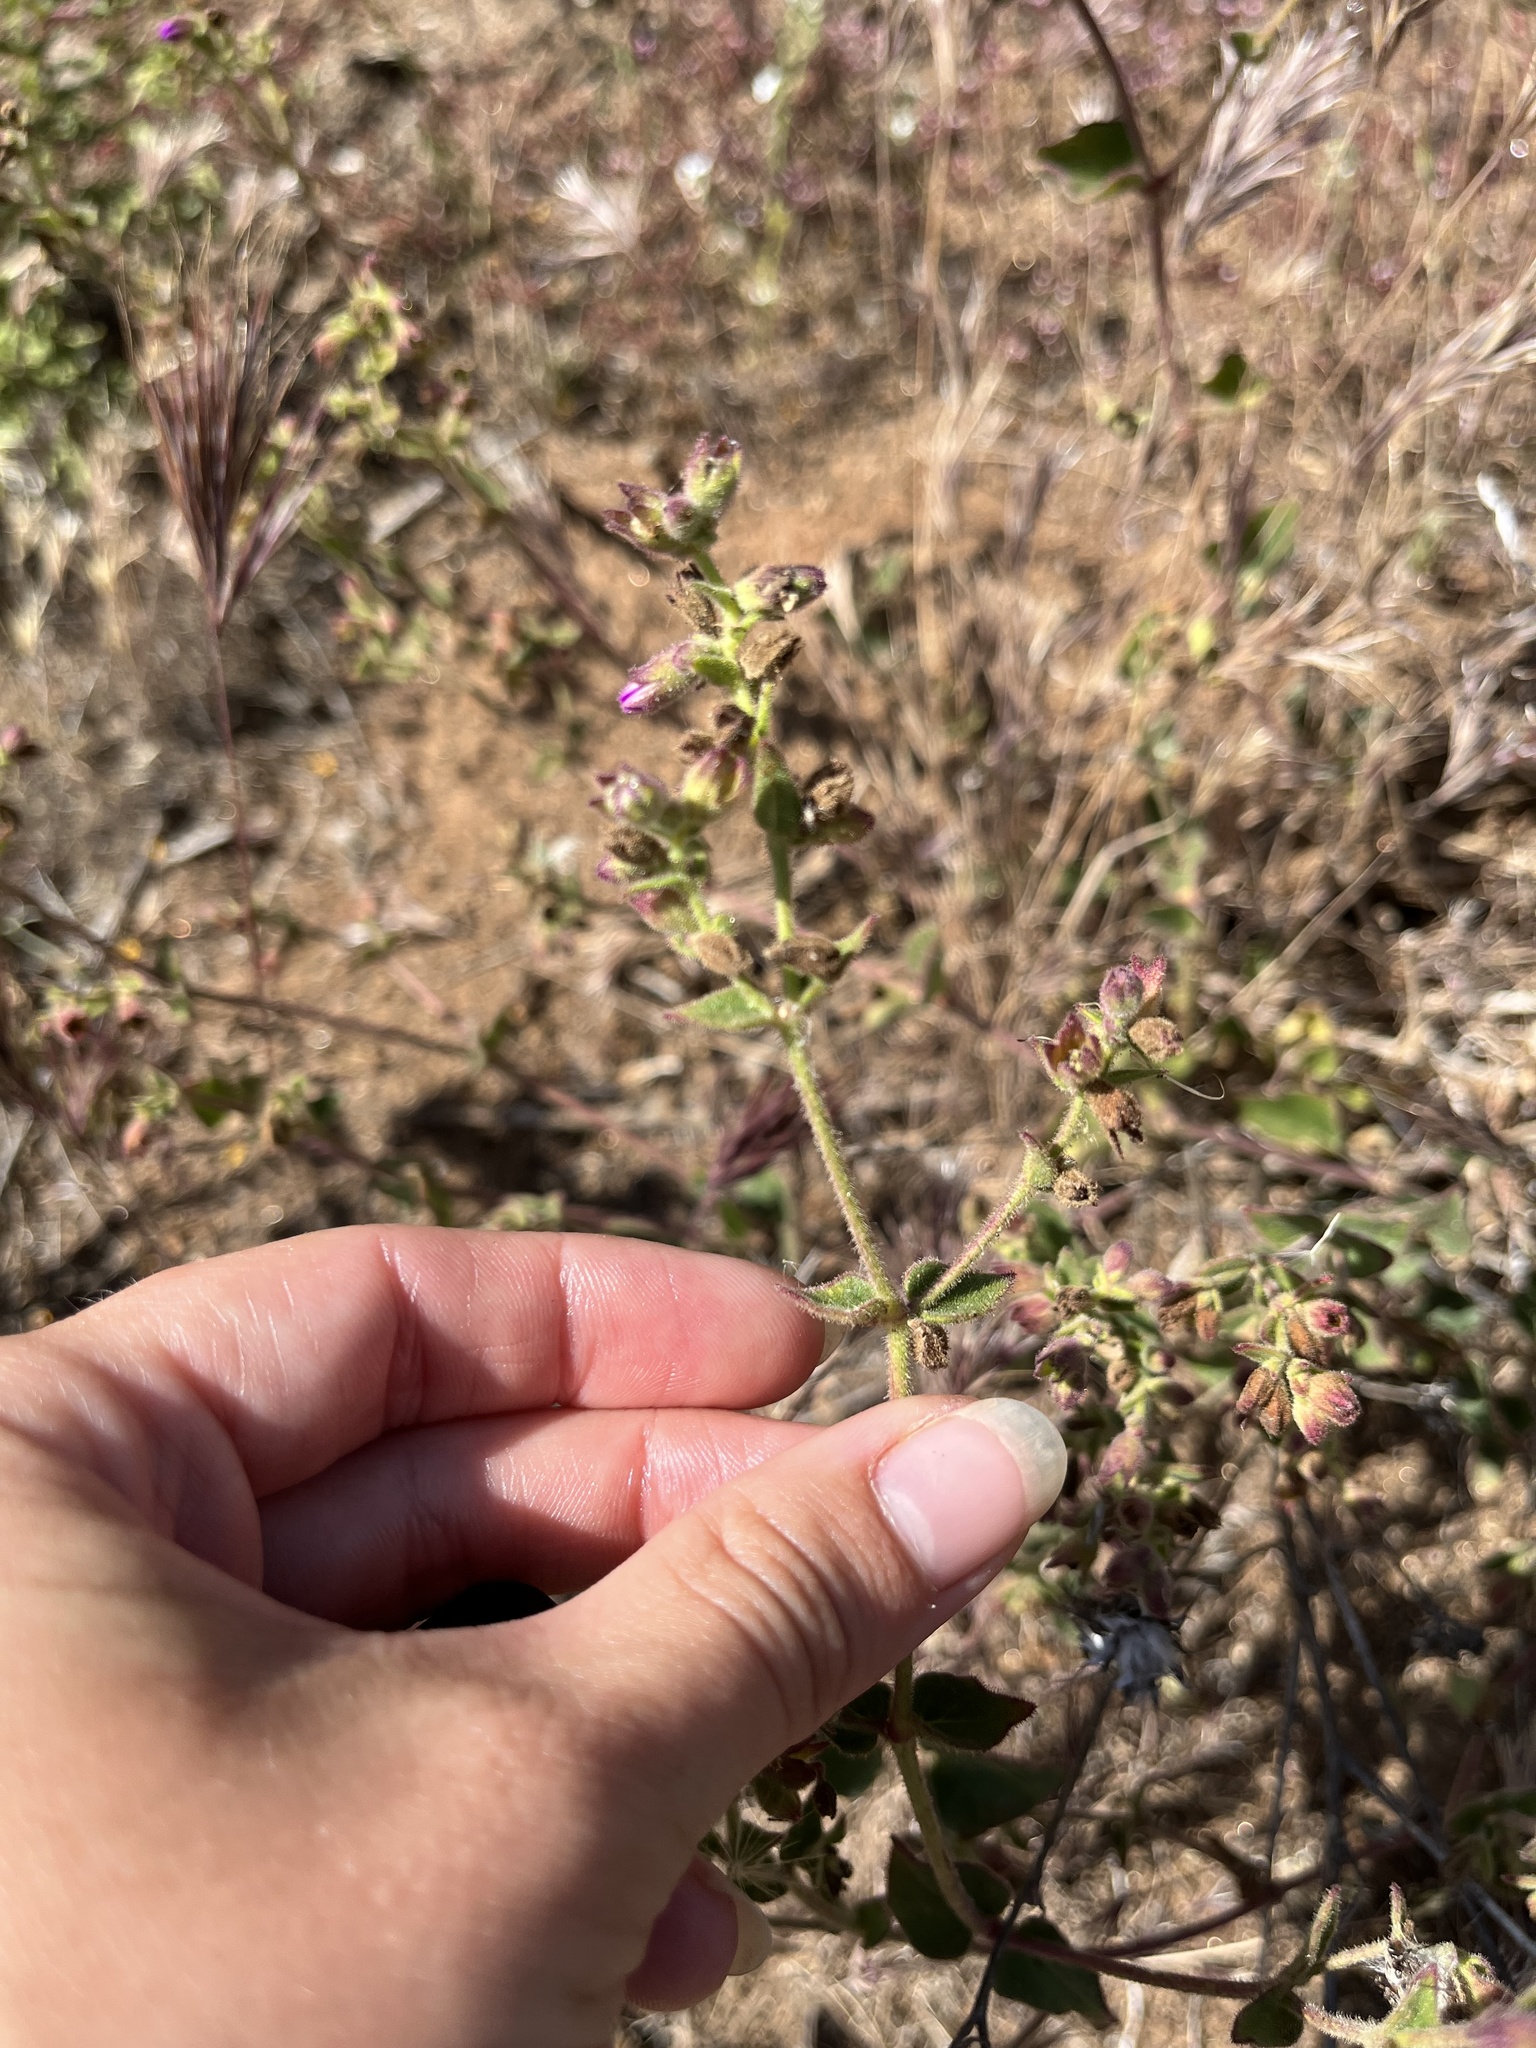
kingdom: Plantae
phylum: Tracheophyta
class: Magnoliopsida
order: Caryophyllales
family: Nyctaginaceae
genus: Mirabilis
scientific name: Mirabilis laevis
